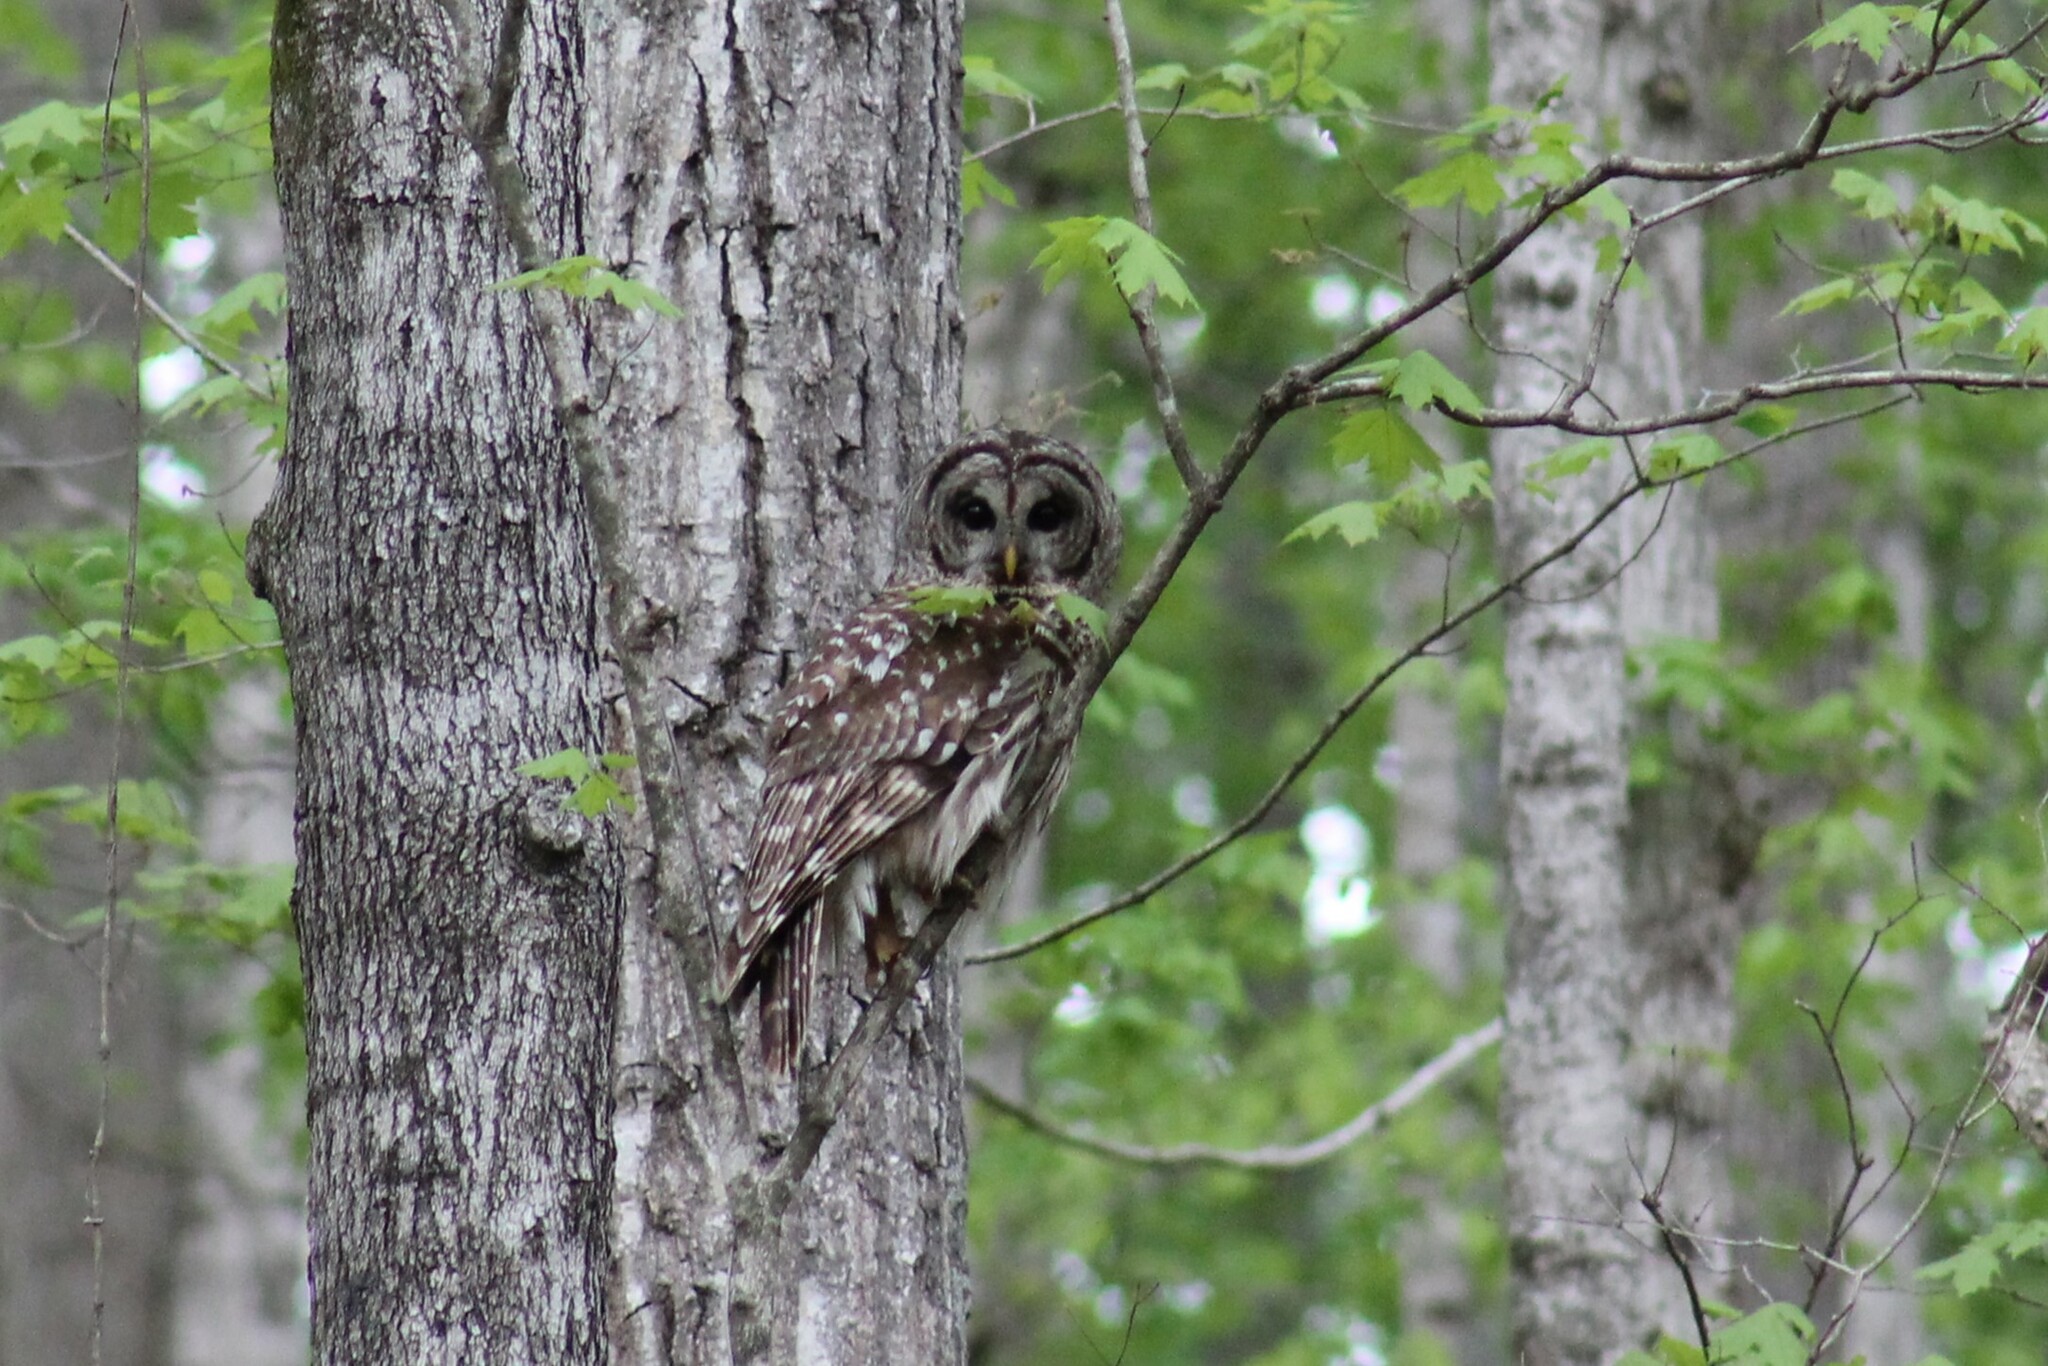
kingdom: Animalia
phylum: Chordata
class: Aves
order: Strigiformes
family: Strigidae
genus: Strix
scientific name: Strix varia
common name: Barred owl
